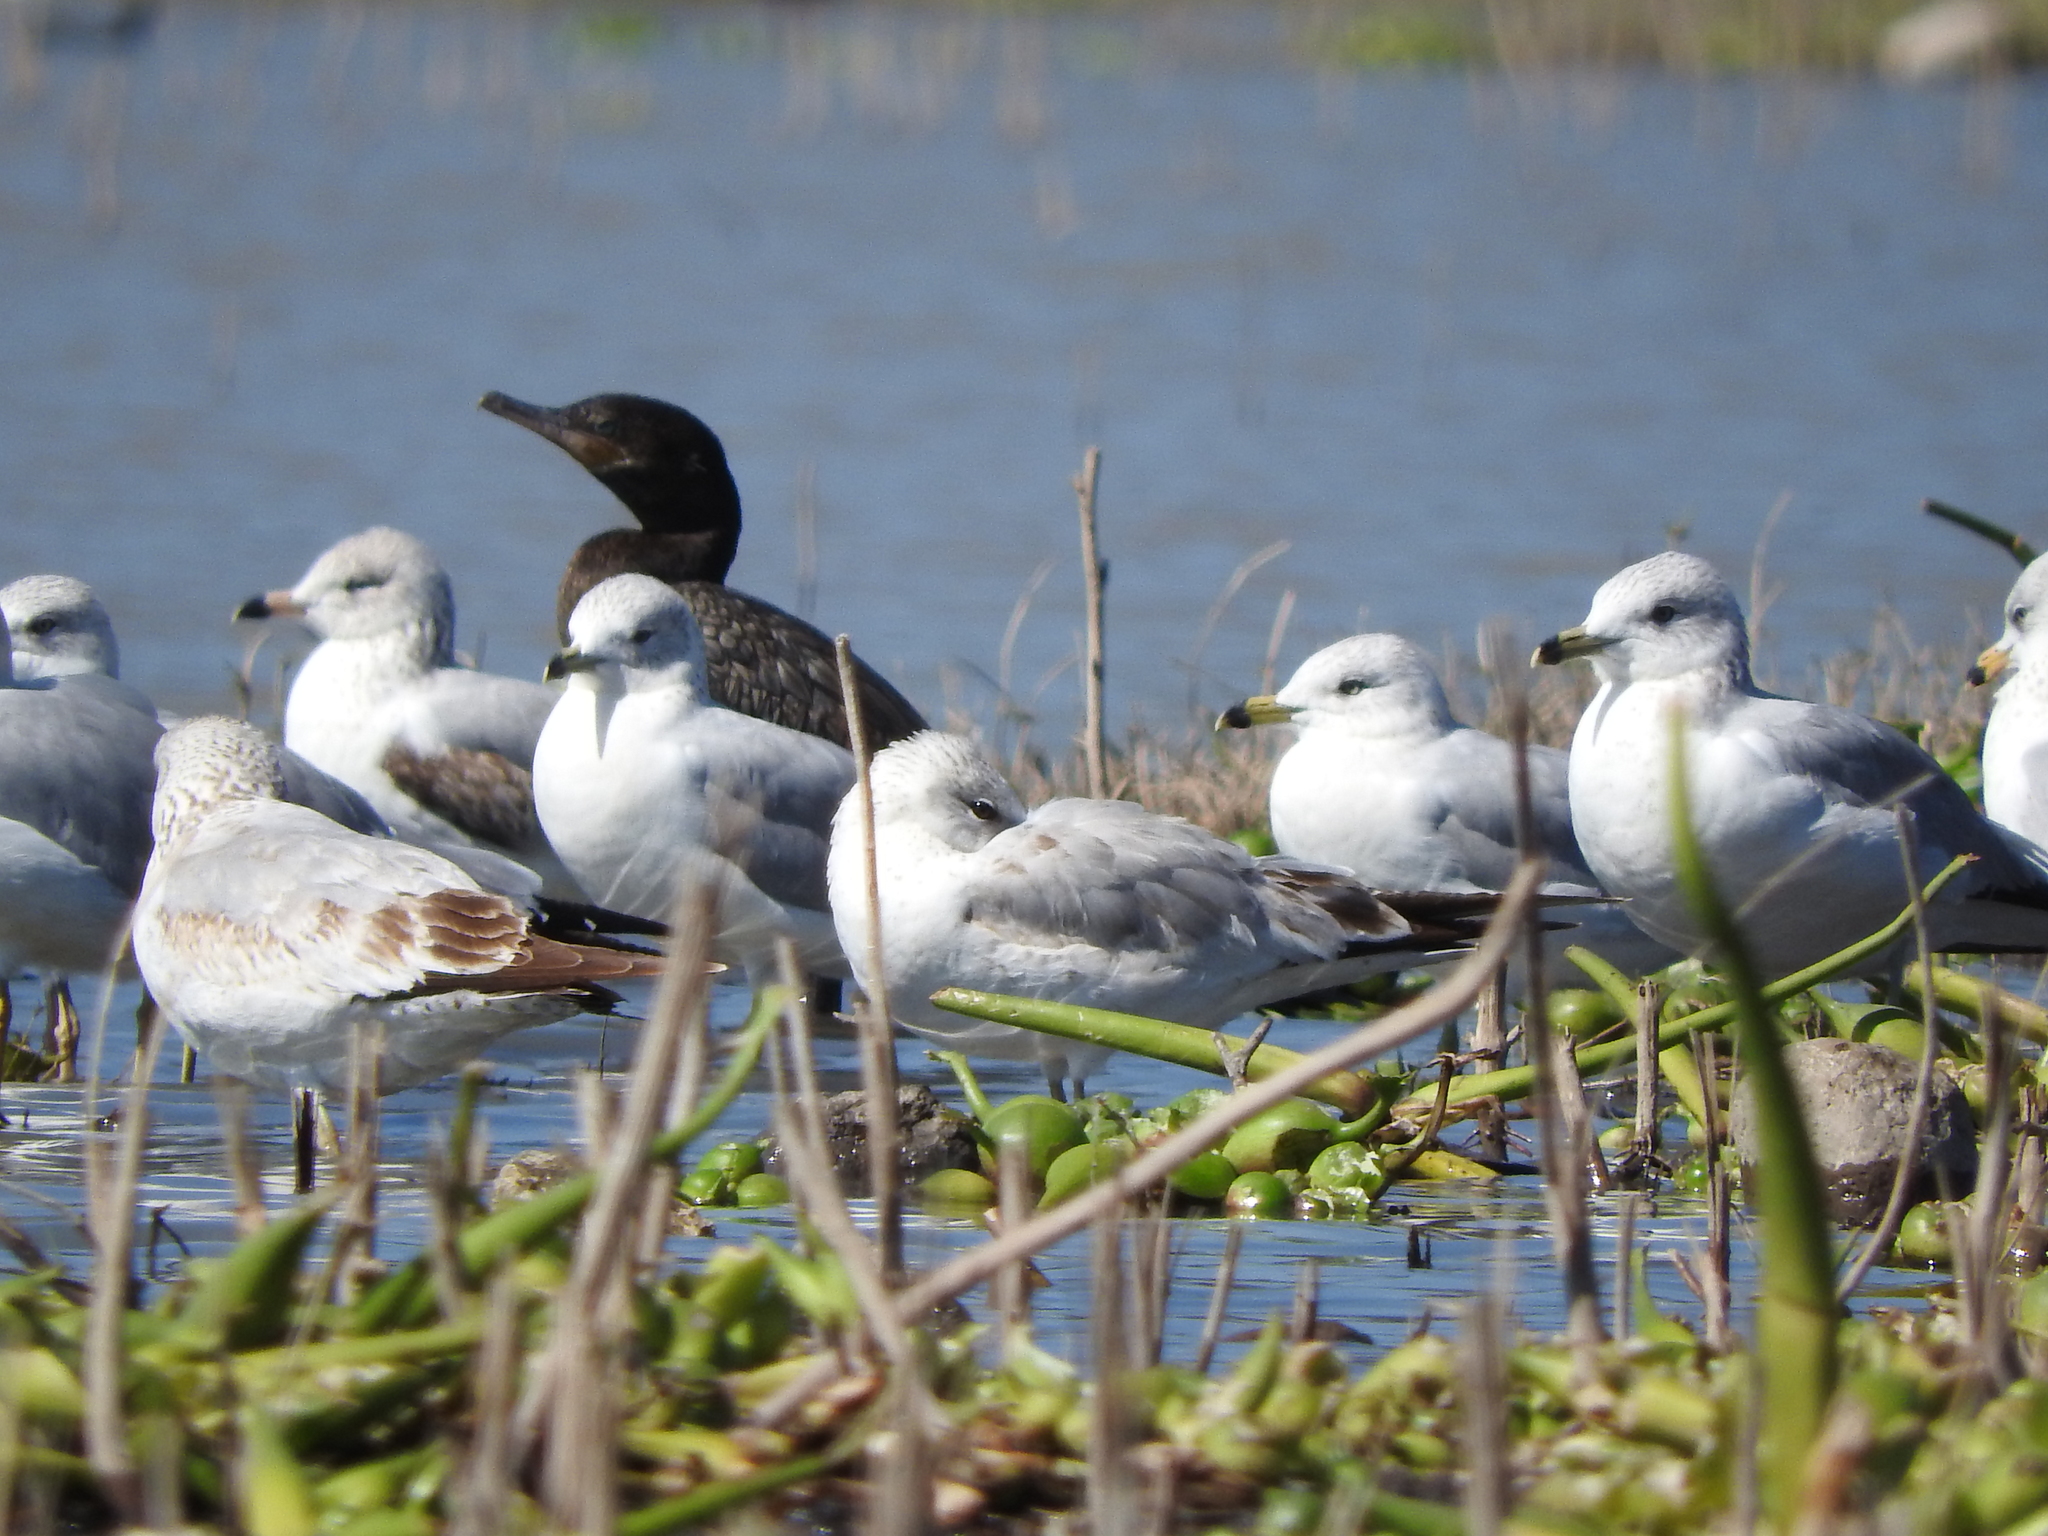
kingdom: Animalia
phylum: Chordata
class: Aves
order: Charadriiformes
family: Laridae
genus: Larus
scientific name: Larus delawarensis
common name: Ring-billed gull
